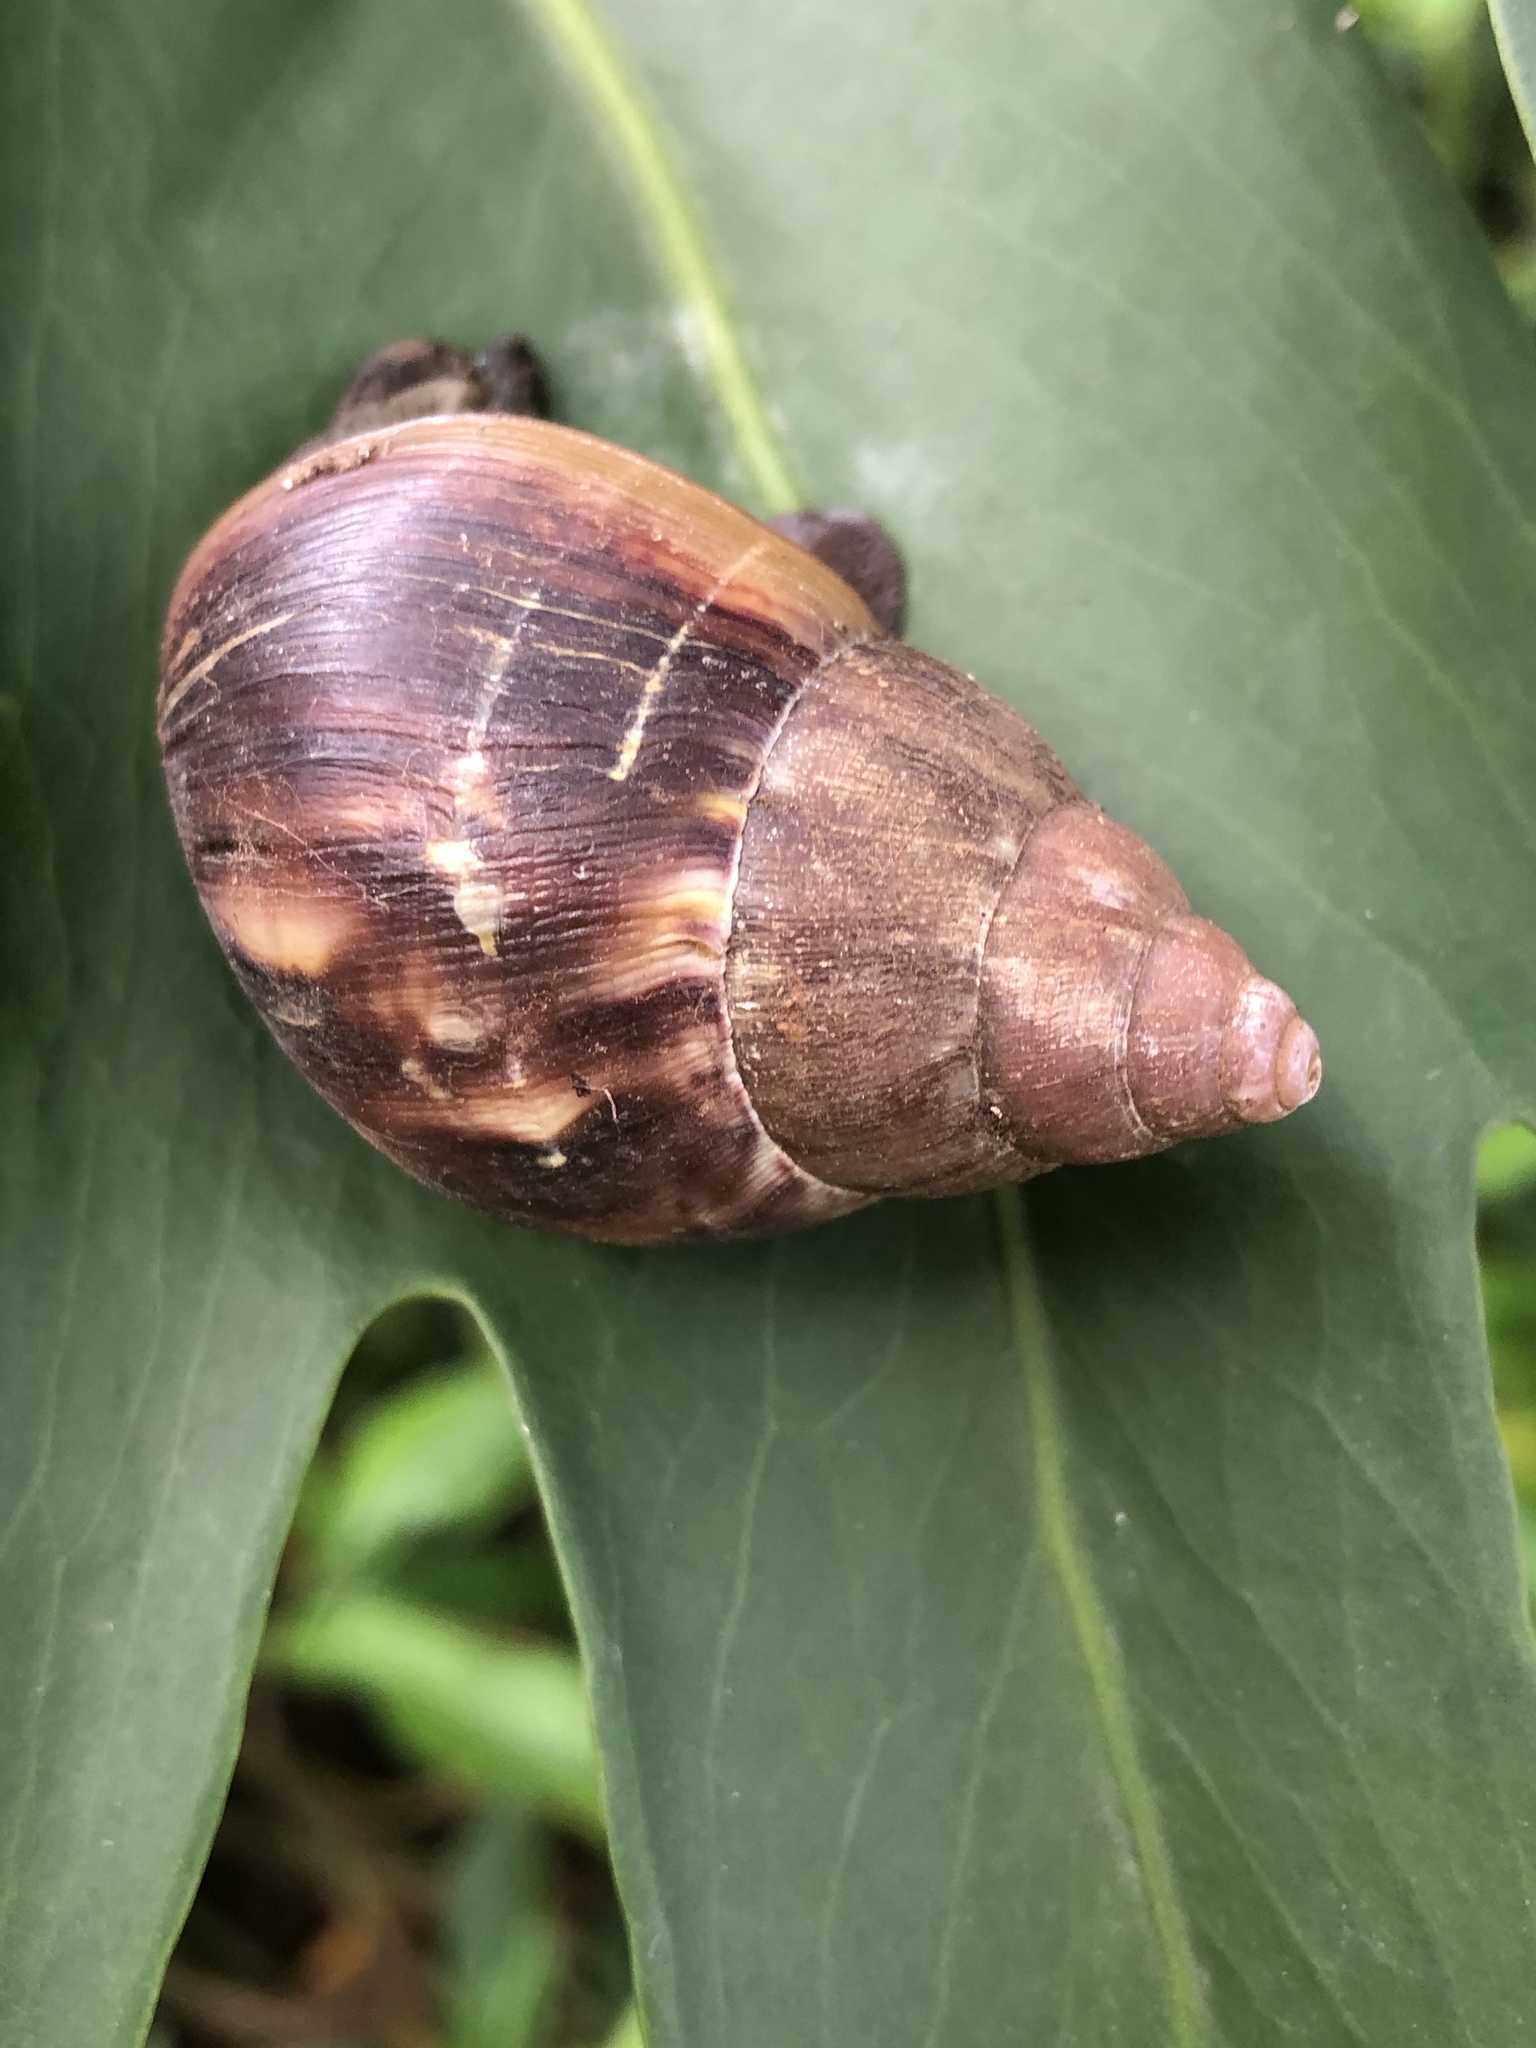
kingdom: Animalia
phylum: Mollusca
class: Gastropoda
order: Stylommatophora
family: Achatinidae
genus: Lissachatina
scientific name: Lissachatina fulica
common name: Giant african snail
